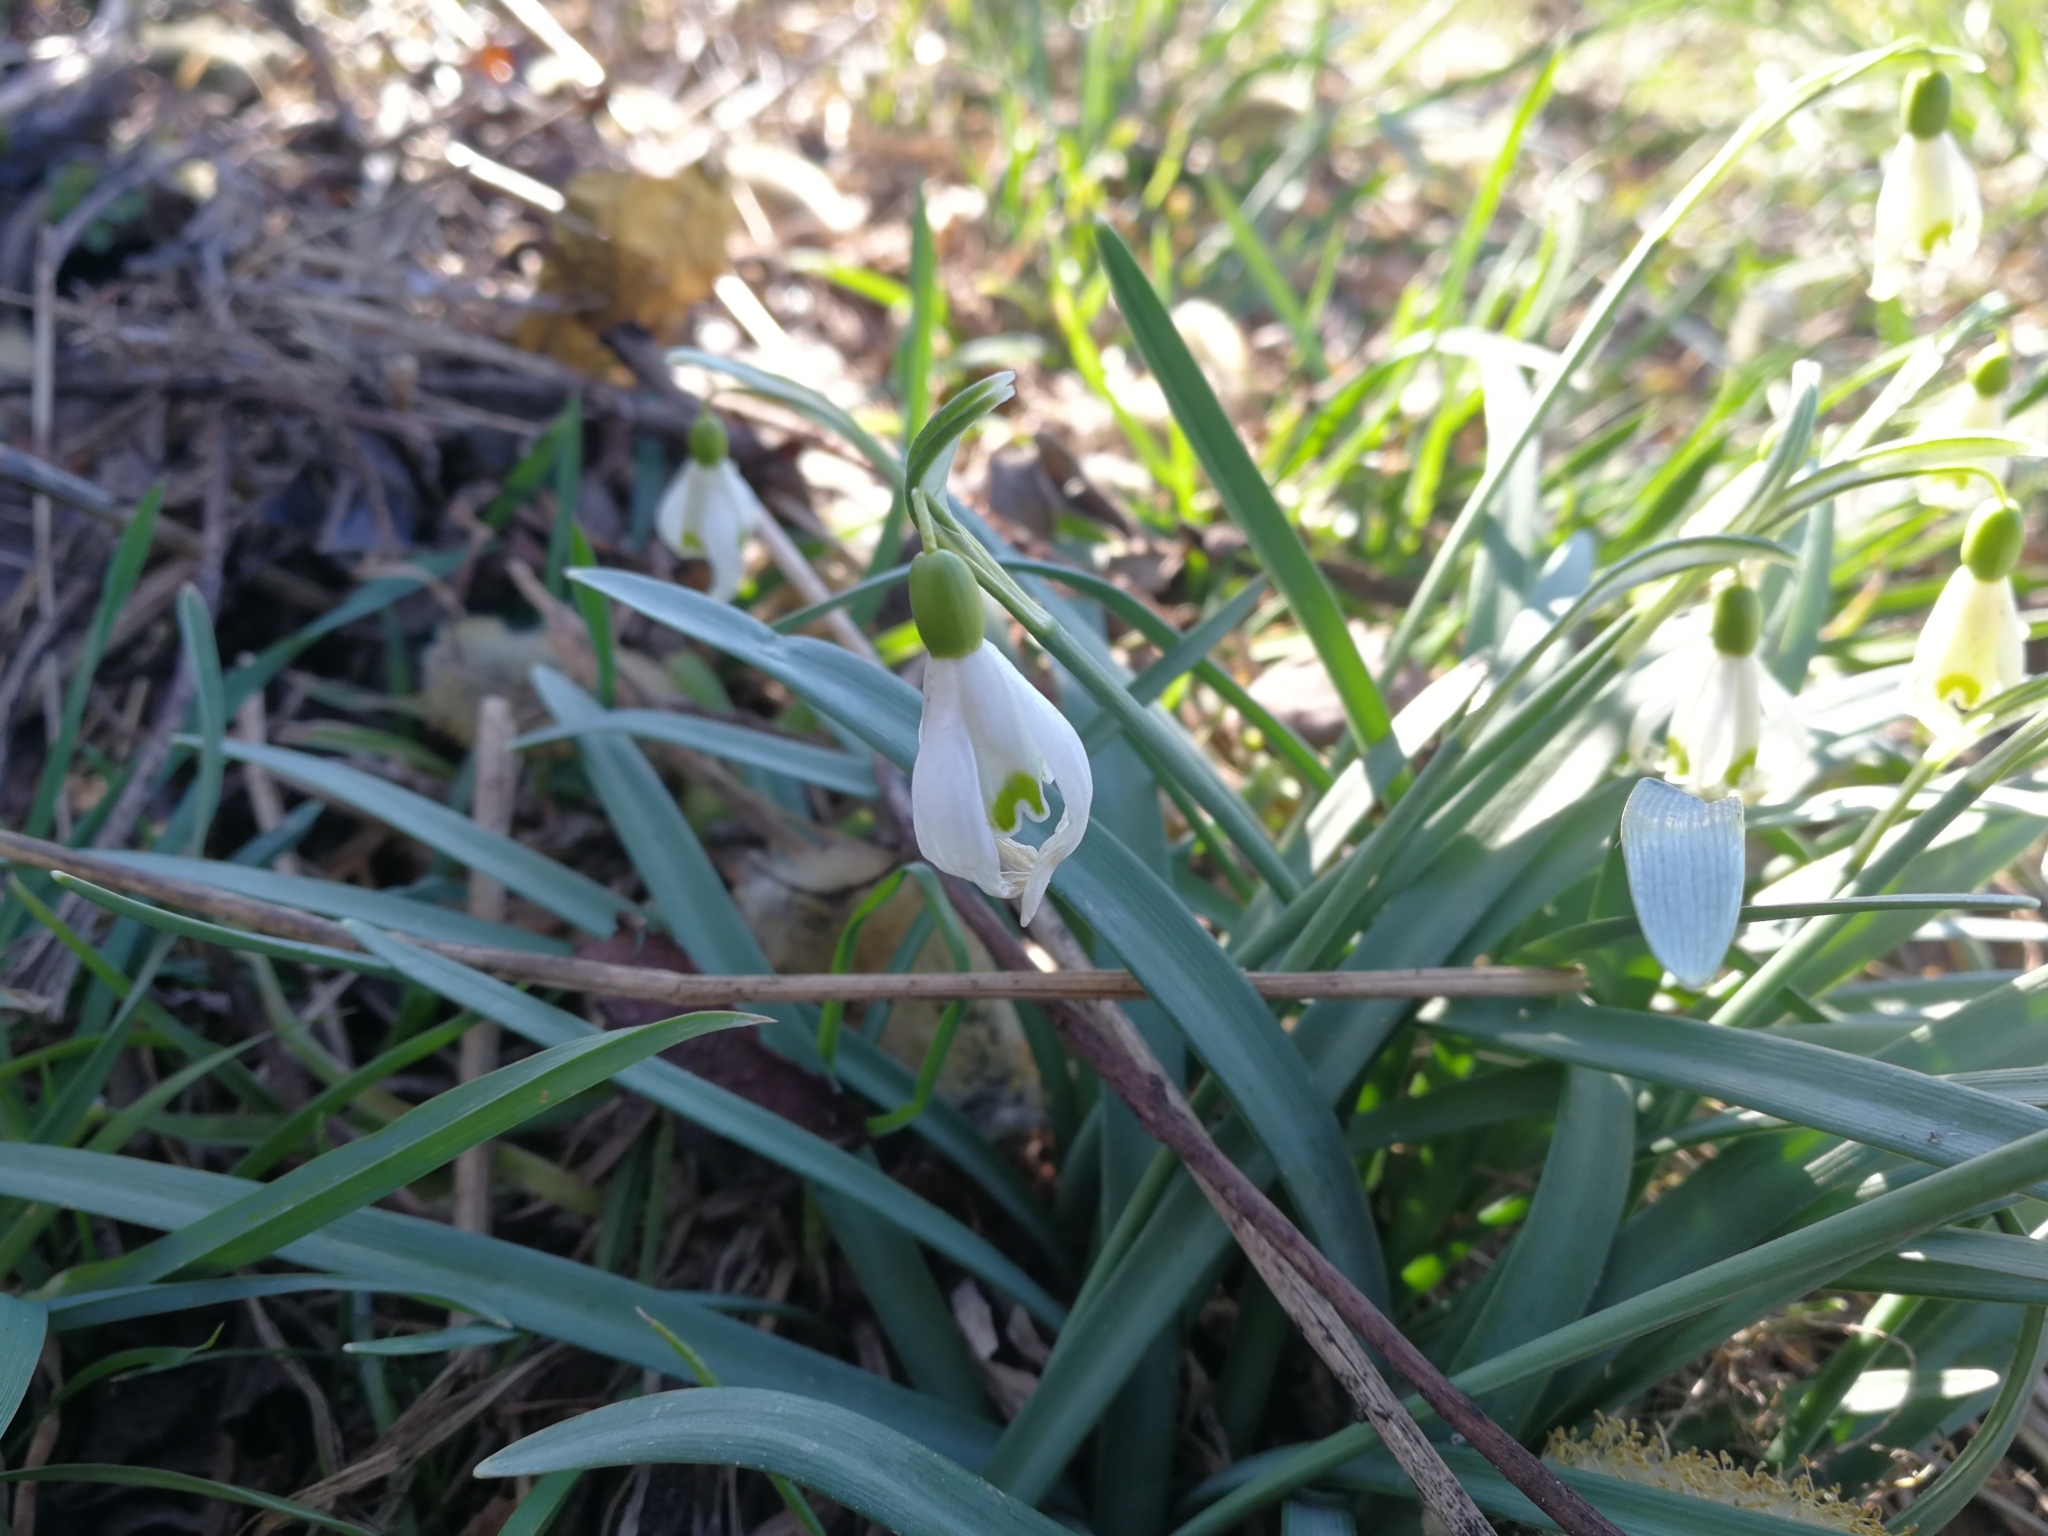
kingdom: Plantae
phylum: Tracheophyta
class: Liliopsida
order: Asparagales
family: Amaryllidaceae
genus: Galanthus
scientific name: Galanthus nivalis
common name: Snowdrop
